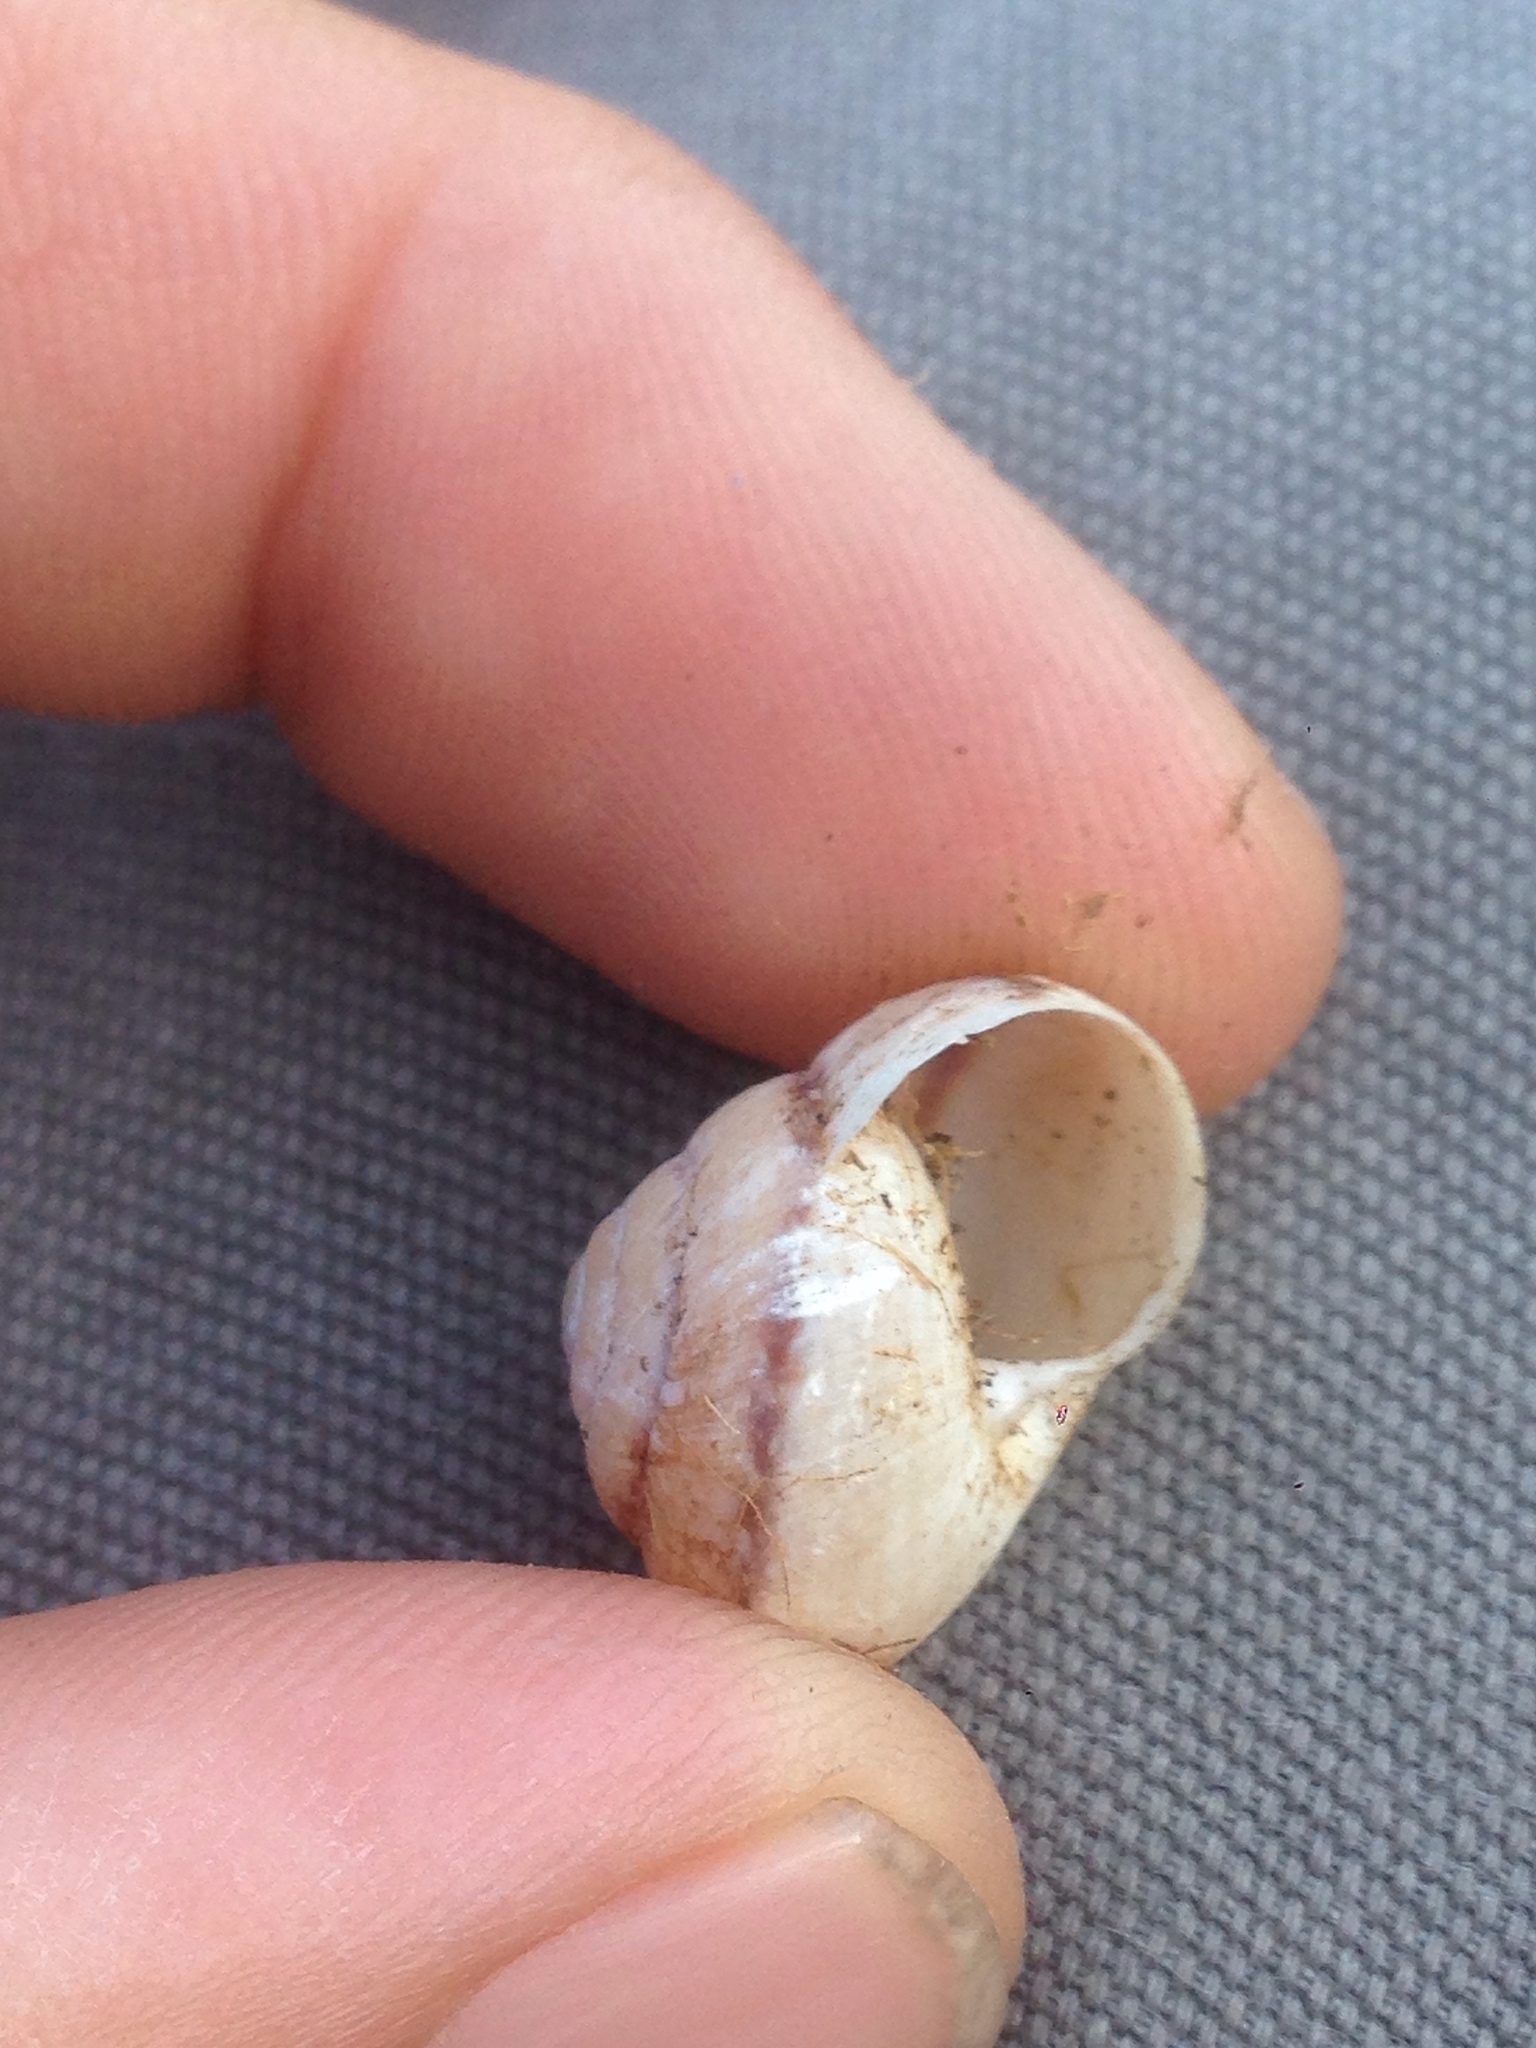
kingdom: Animalia
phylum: Mollusca
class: Gastropoda
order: Stylommatophora
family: Xanthonychidae
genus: Xerarionta
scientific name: Xerarionta tryoni
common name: Bicolor cactus snail
